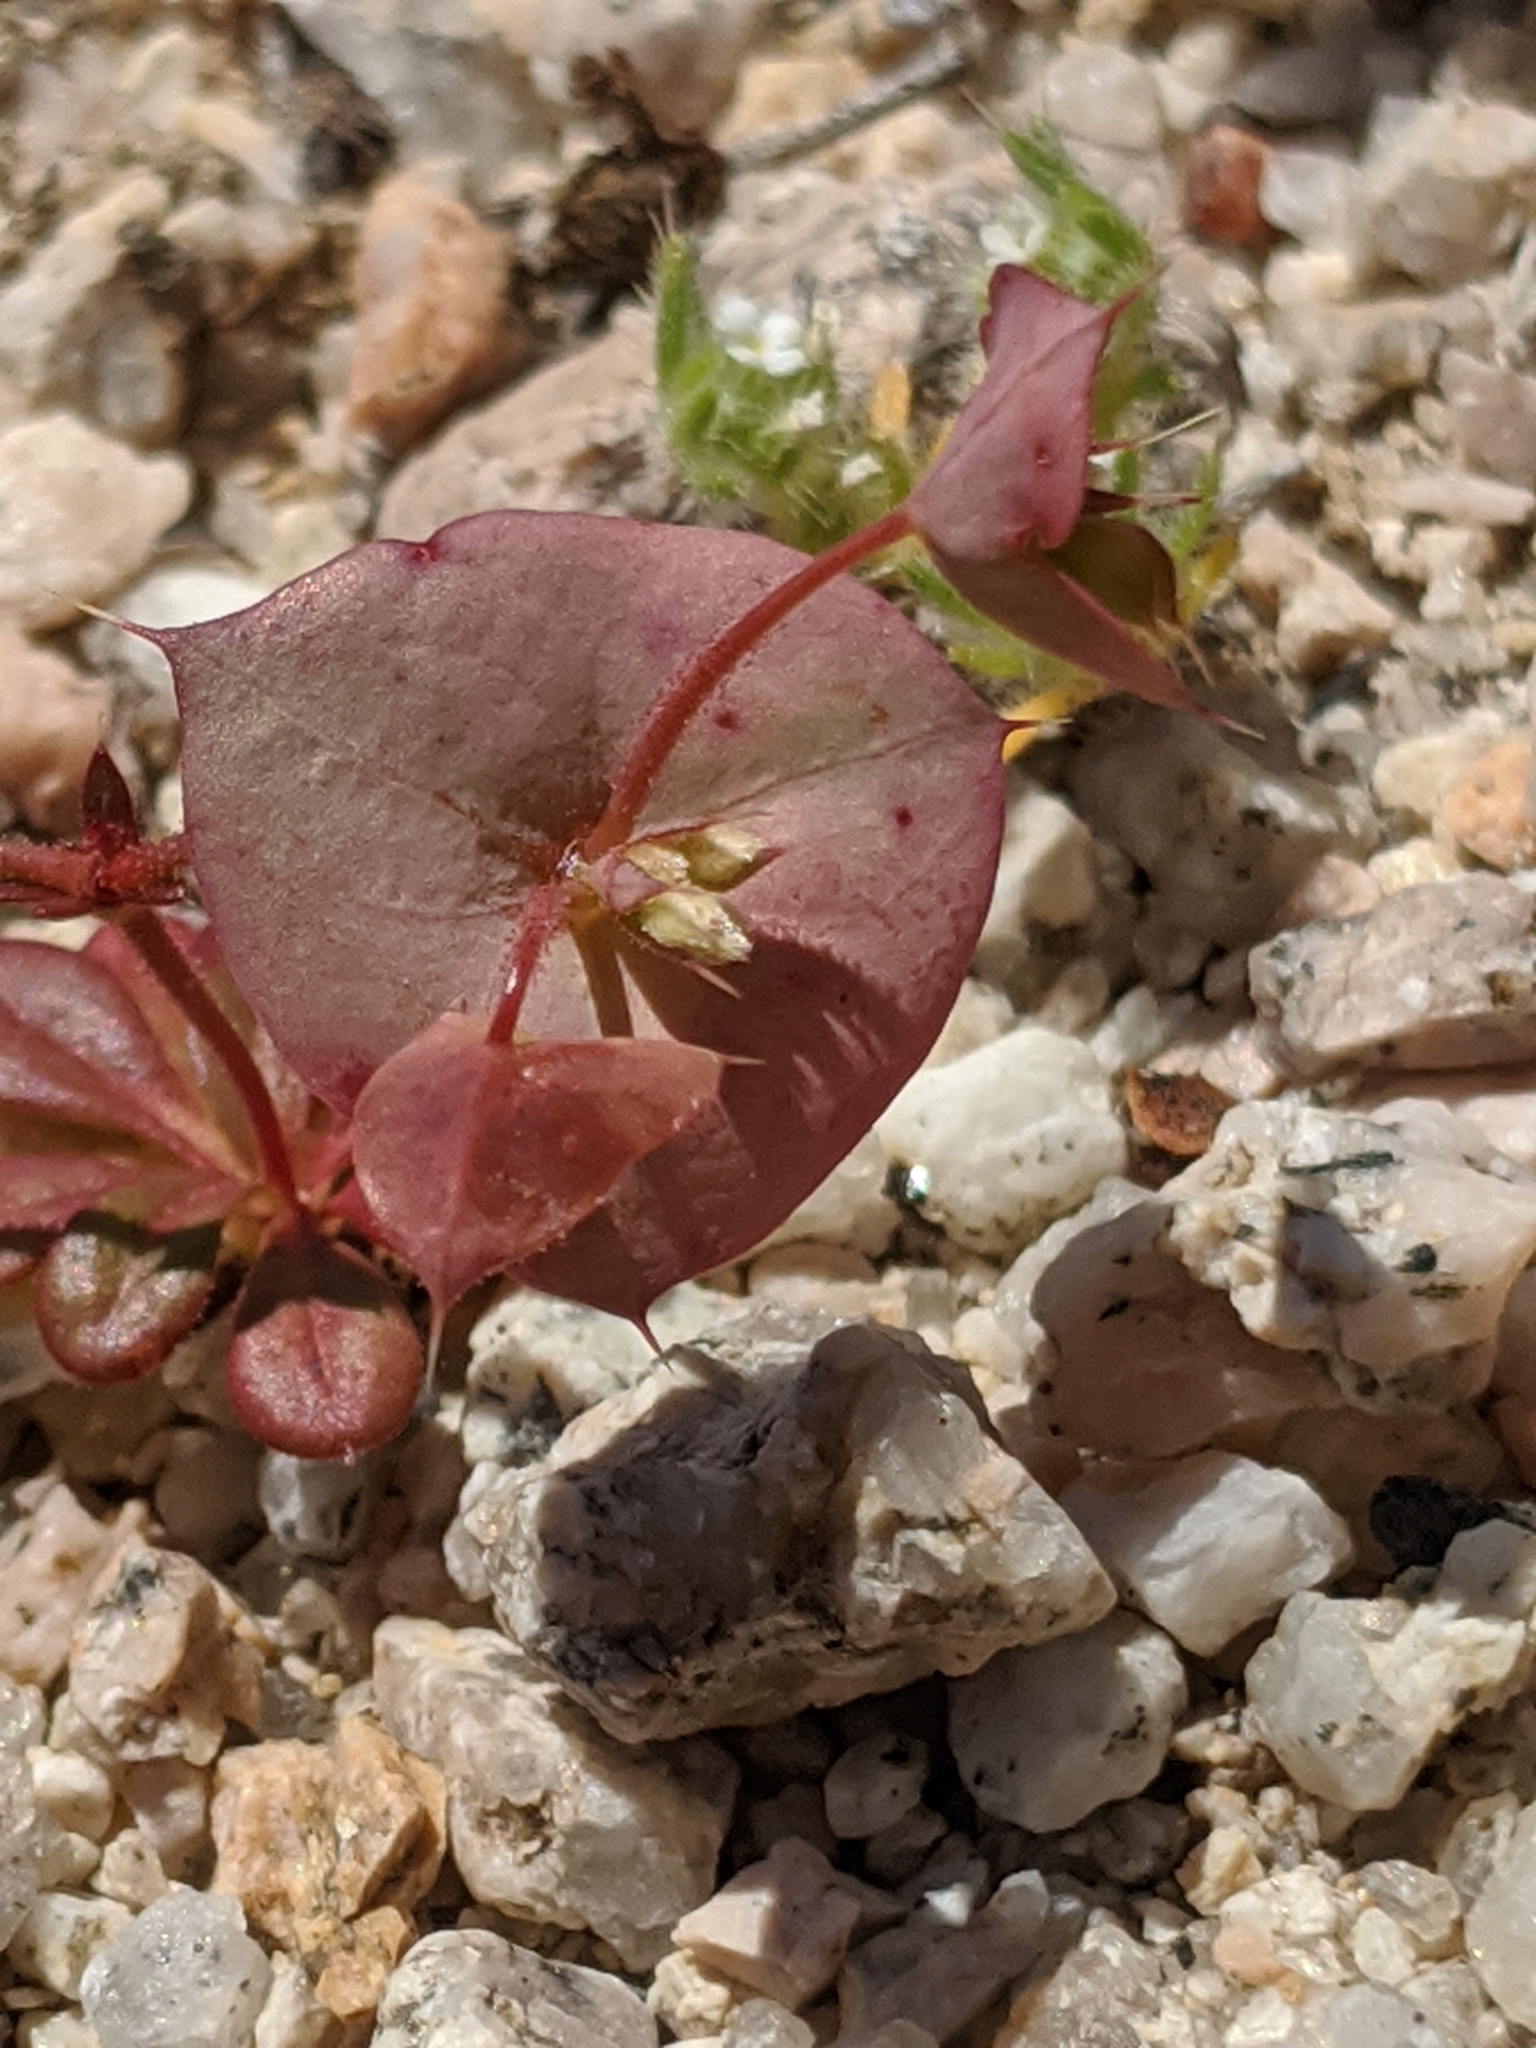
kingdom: Plantae
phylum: Tracheophyta
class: Magnoliopsida
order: Caryophyllales
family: Polygonaceae
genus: Oxytheca
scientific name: Oxytheca perfoliata
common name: Round-leaf puncturebract
